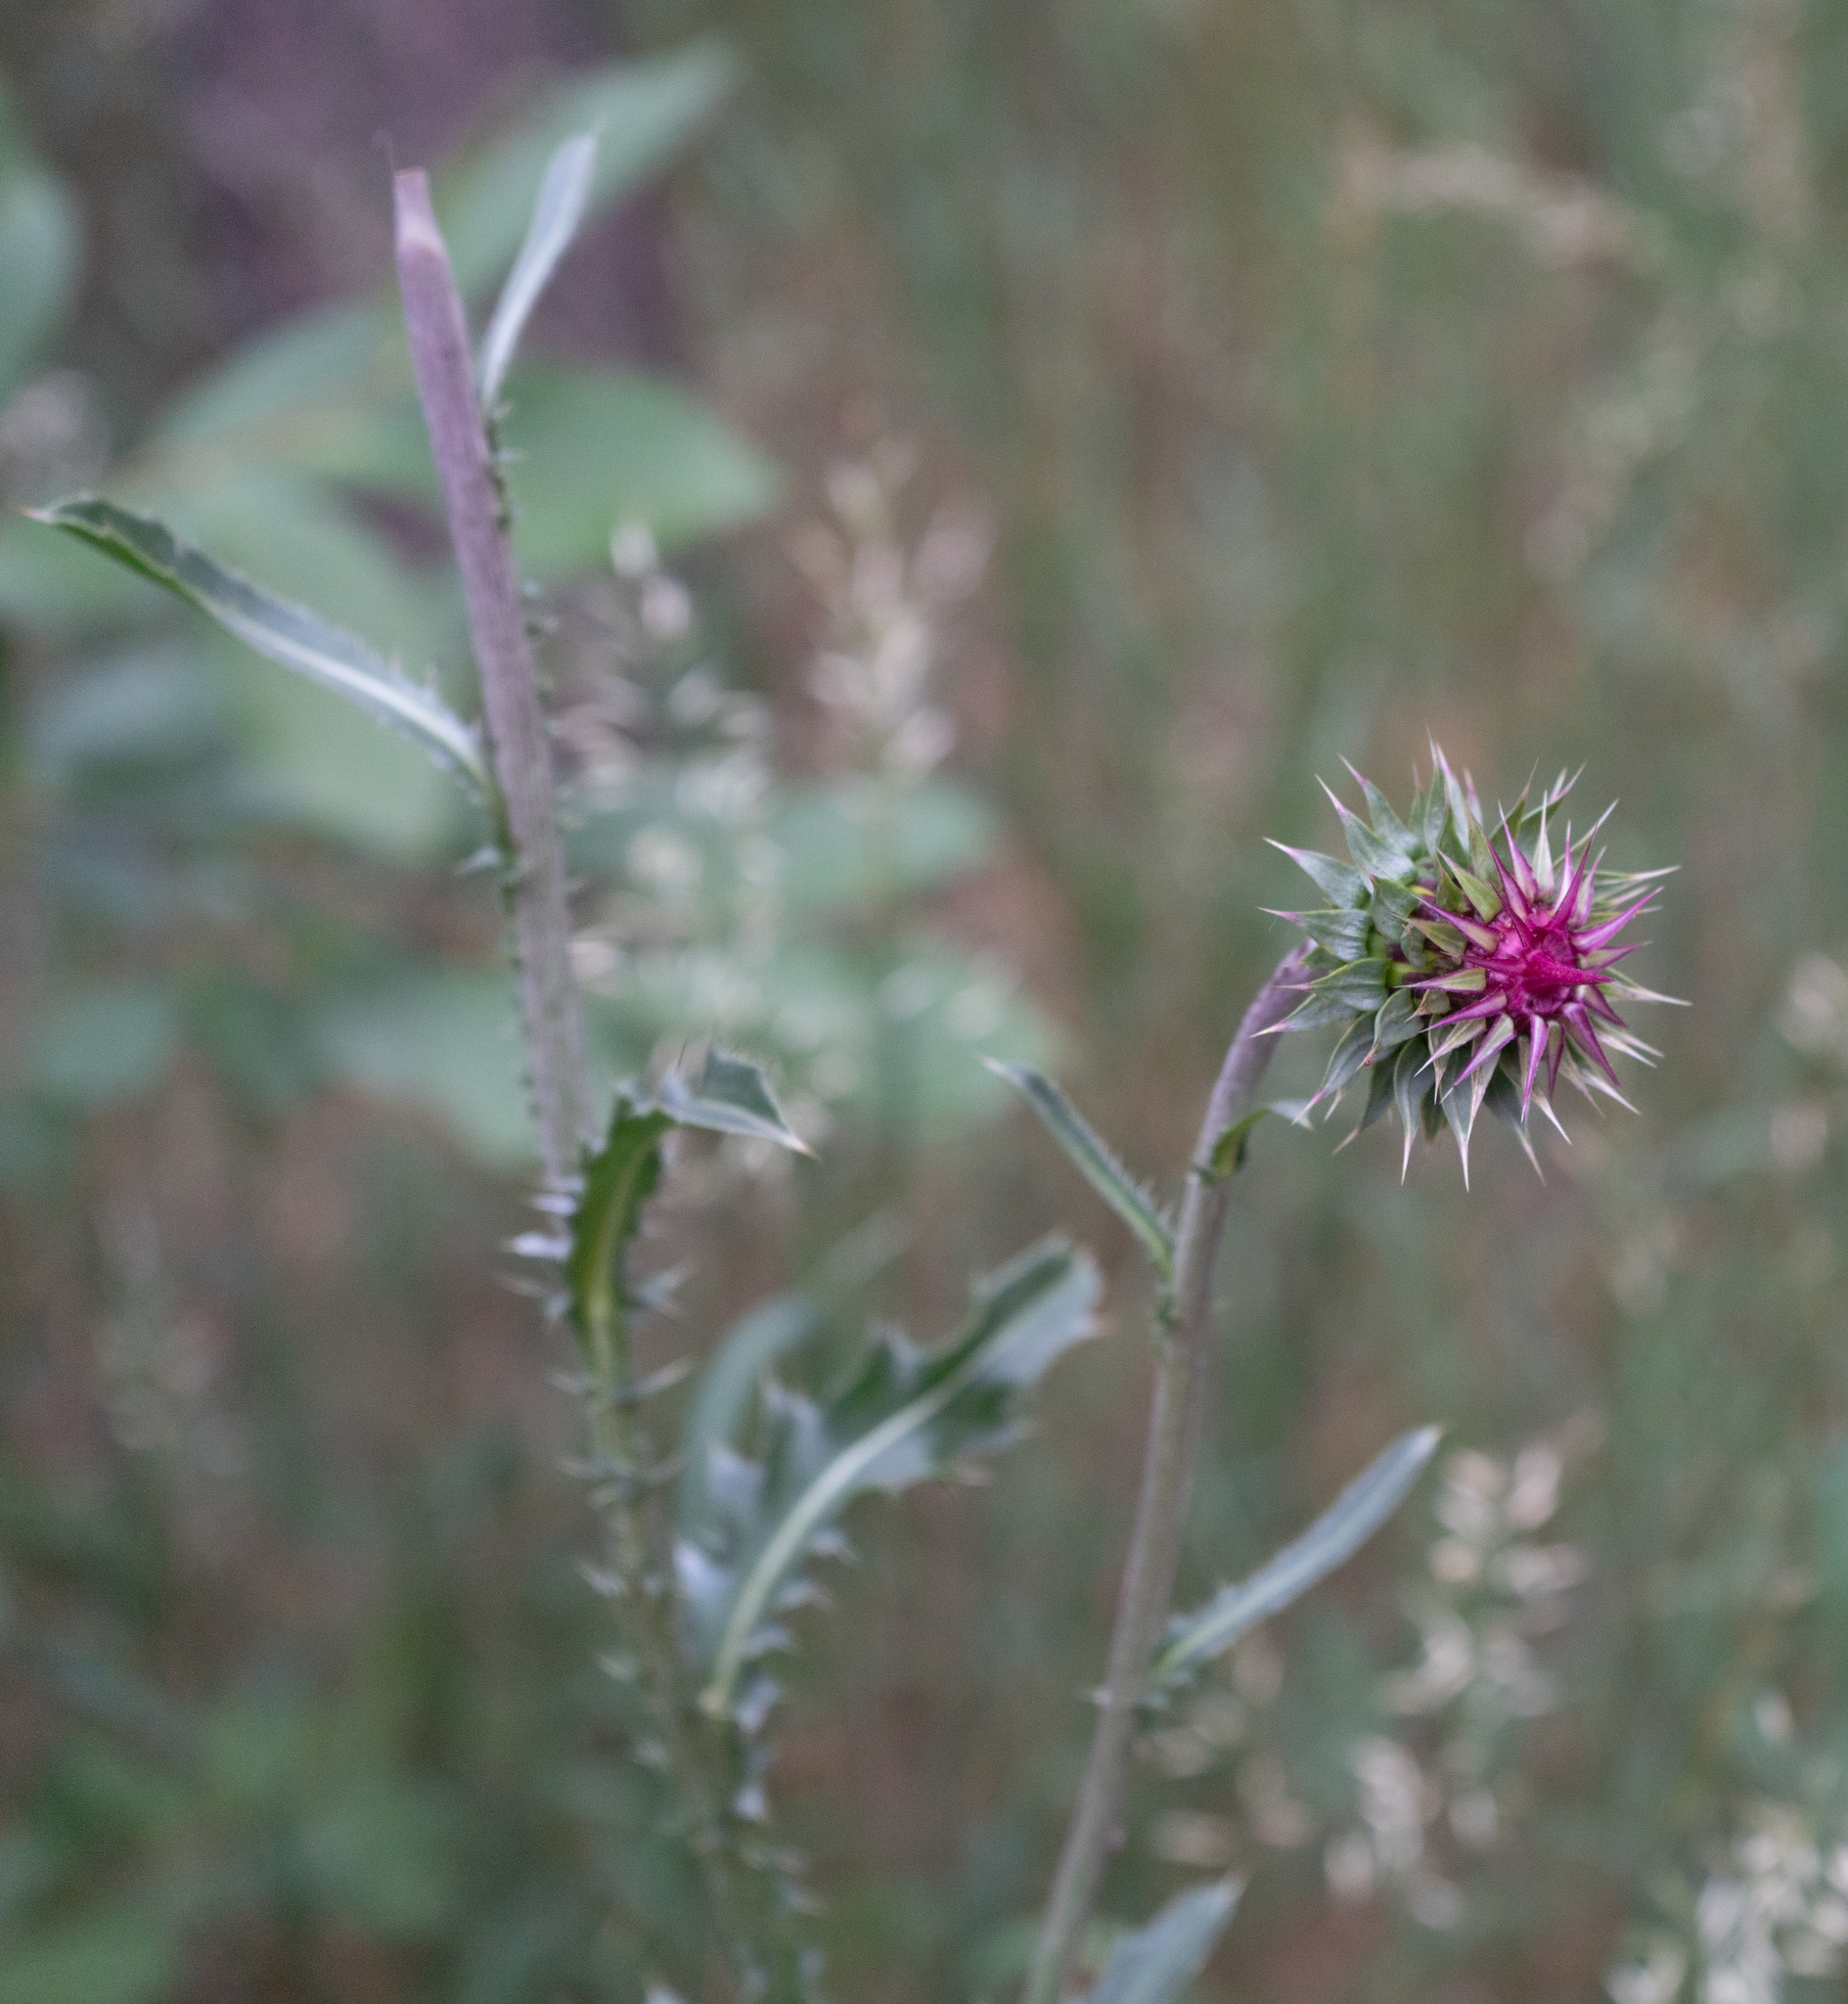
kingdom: Plantae
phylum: Tracheophyta
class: Magnoliopsida
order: Asterales
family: Asteraceae
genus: Carduus
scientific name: Carduus nutans
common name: Musk thistle
